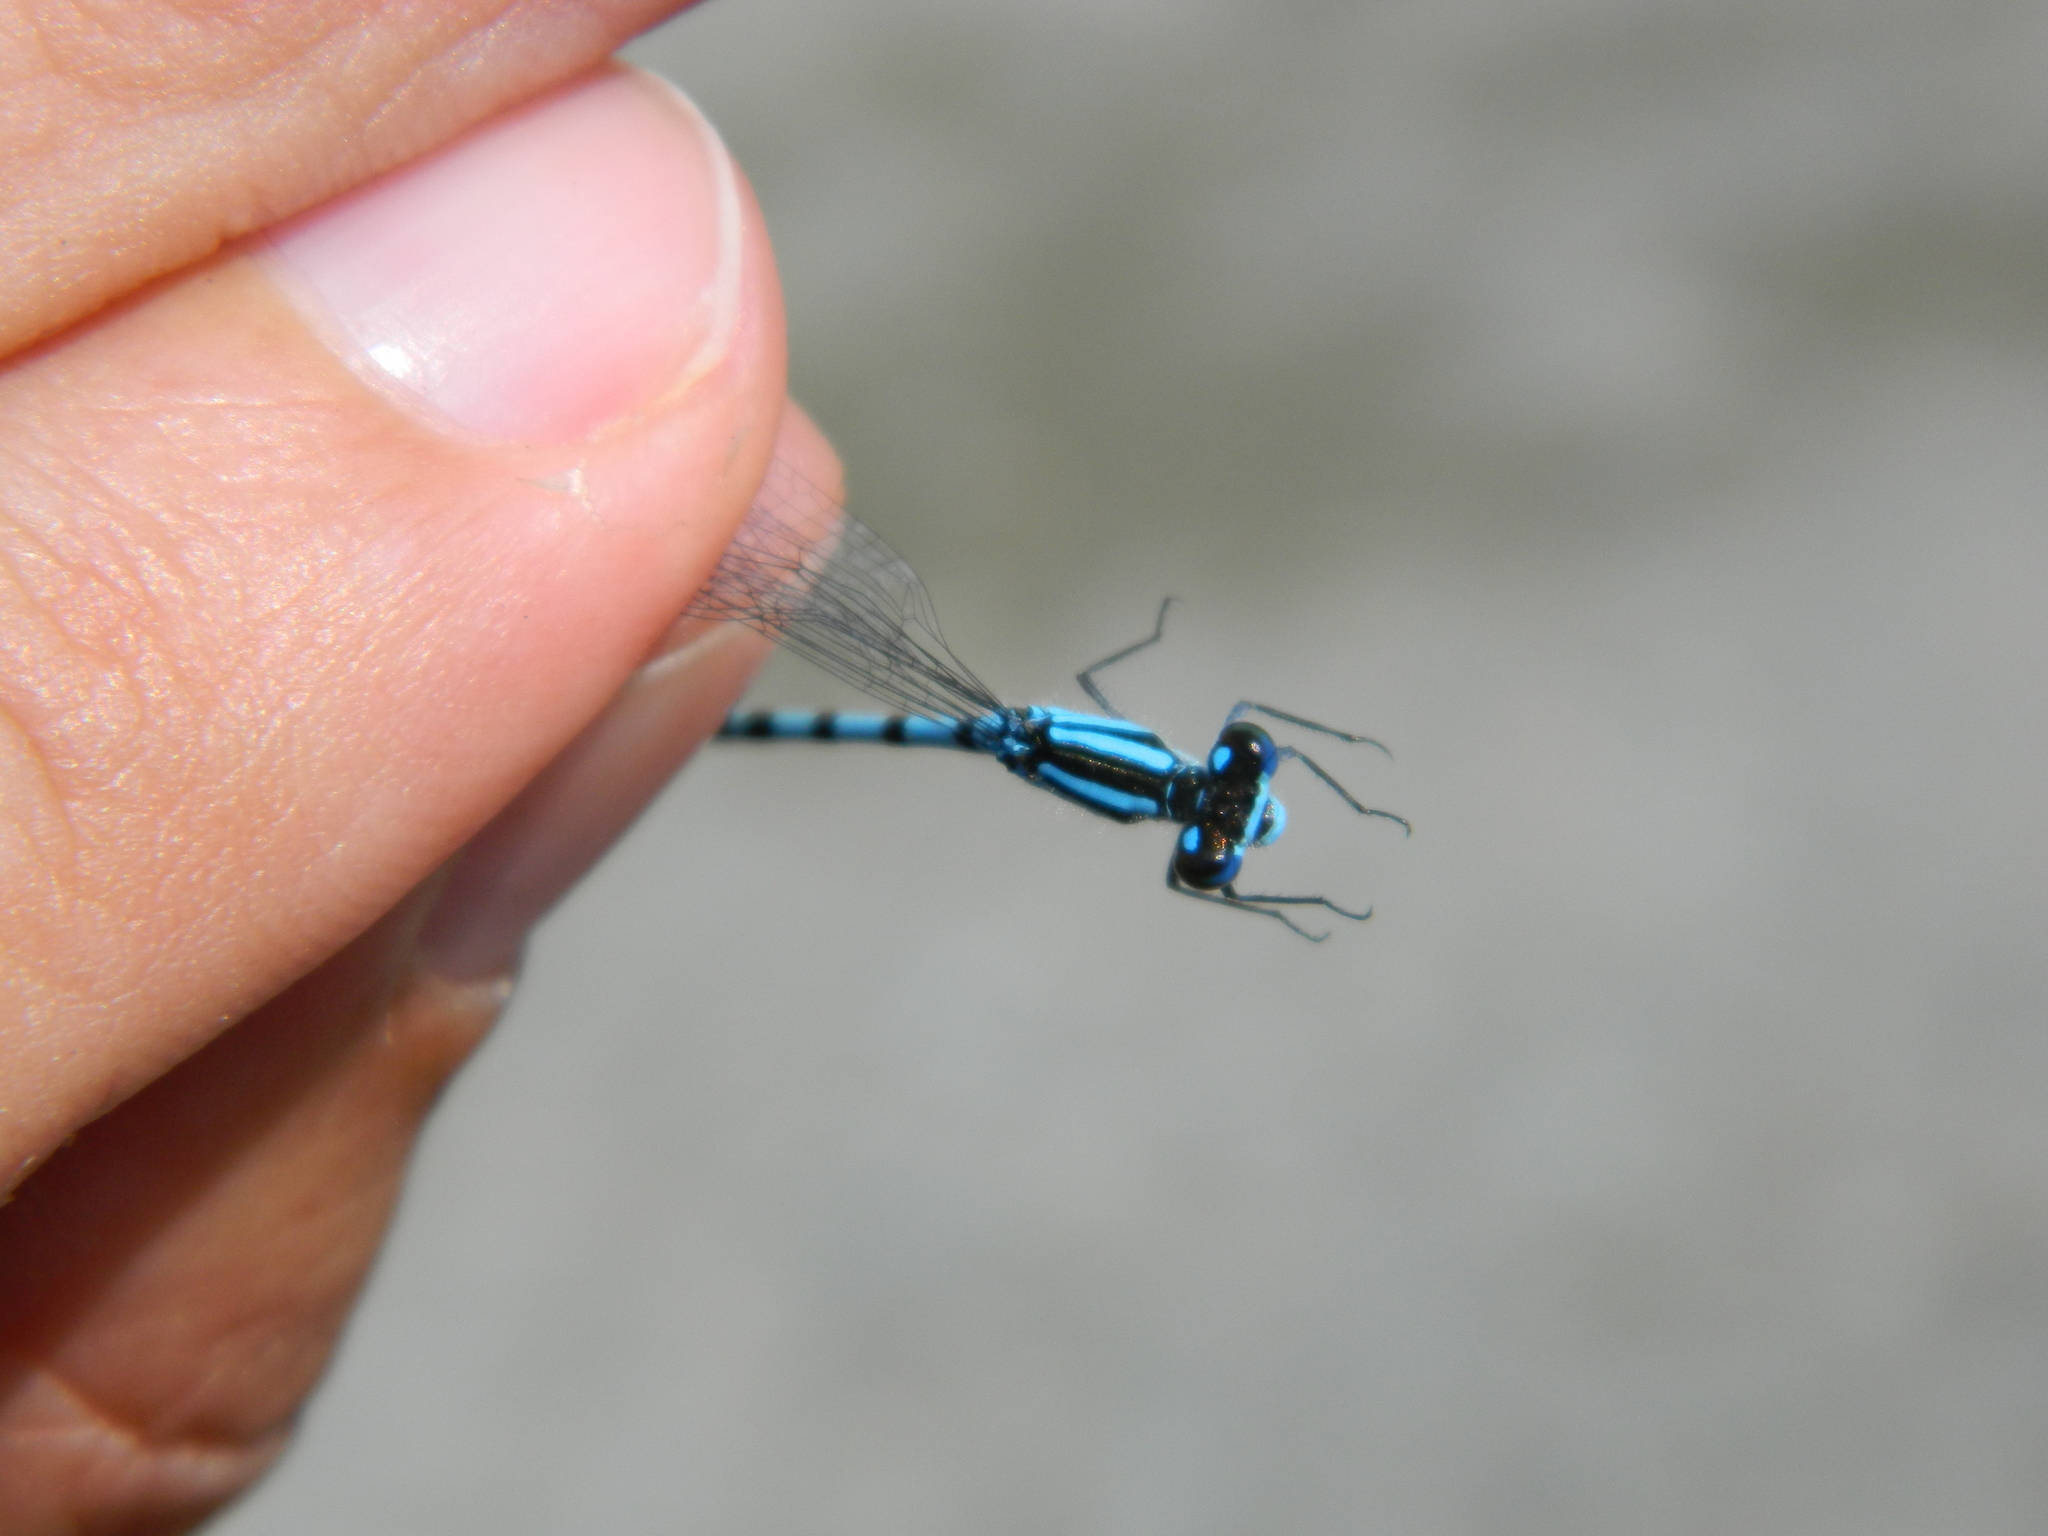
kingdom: Animalia
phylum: Arthropoda
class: Insecta
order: Odonata
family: Coenagrionidae
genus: Enallagma
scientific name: Enallagma hageni
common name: Hagen's bluet
